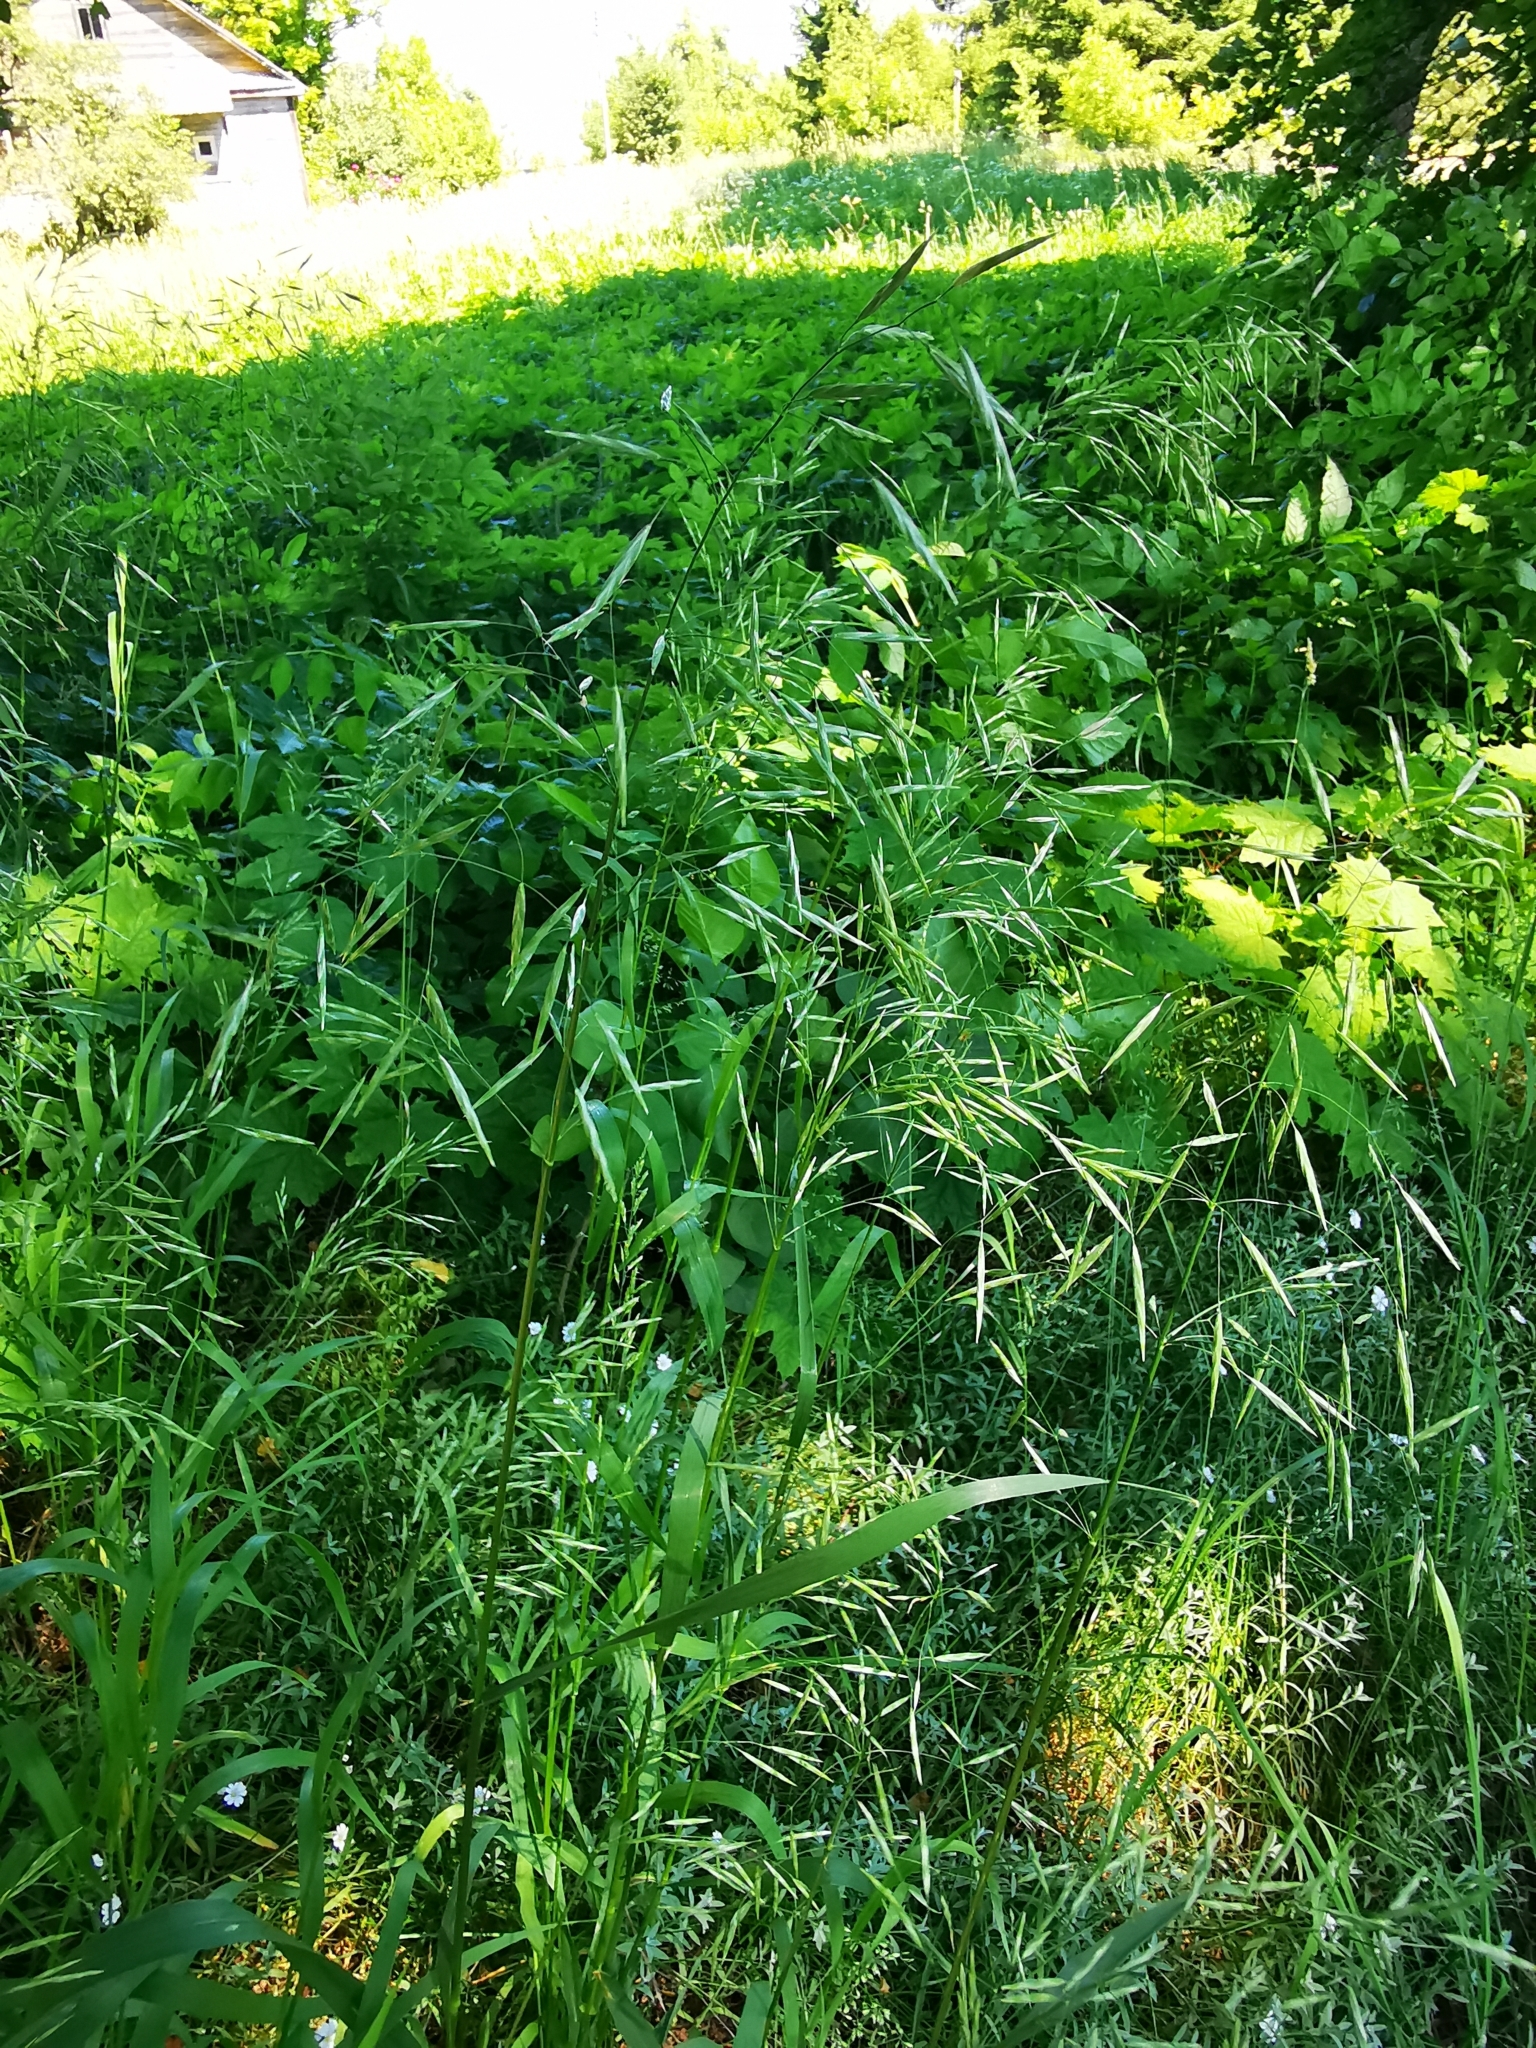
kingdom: Plantae
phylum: Tracheophyta
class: Liliopsida
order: Poales
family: Poaceae
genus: Bromus
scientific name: Bromus inermis
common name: Smooth brome
